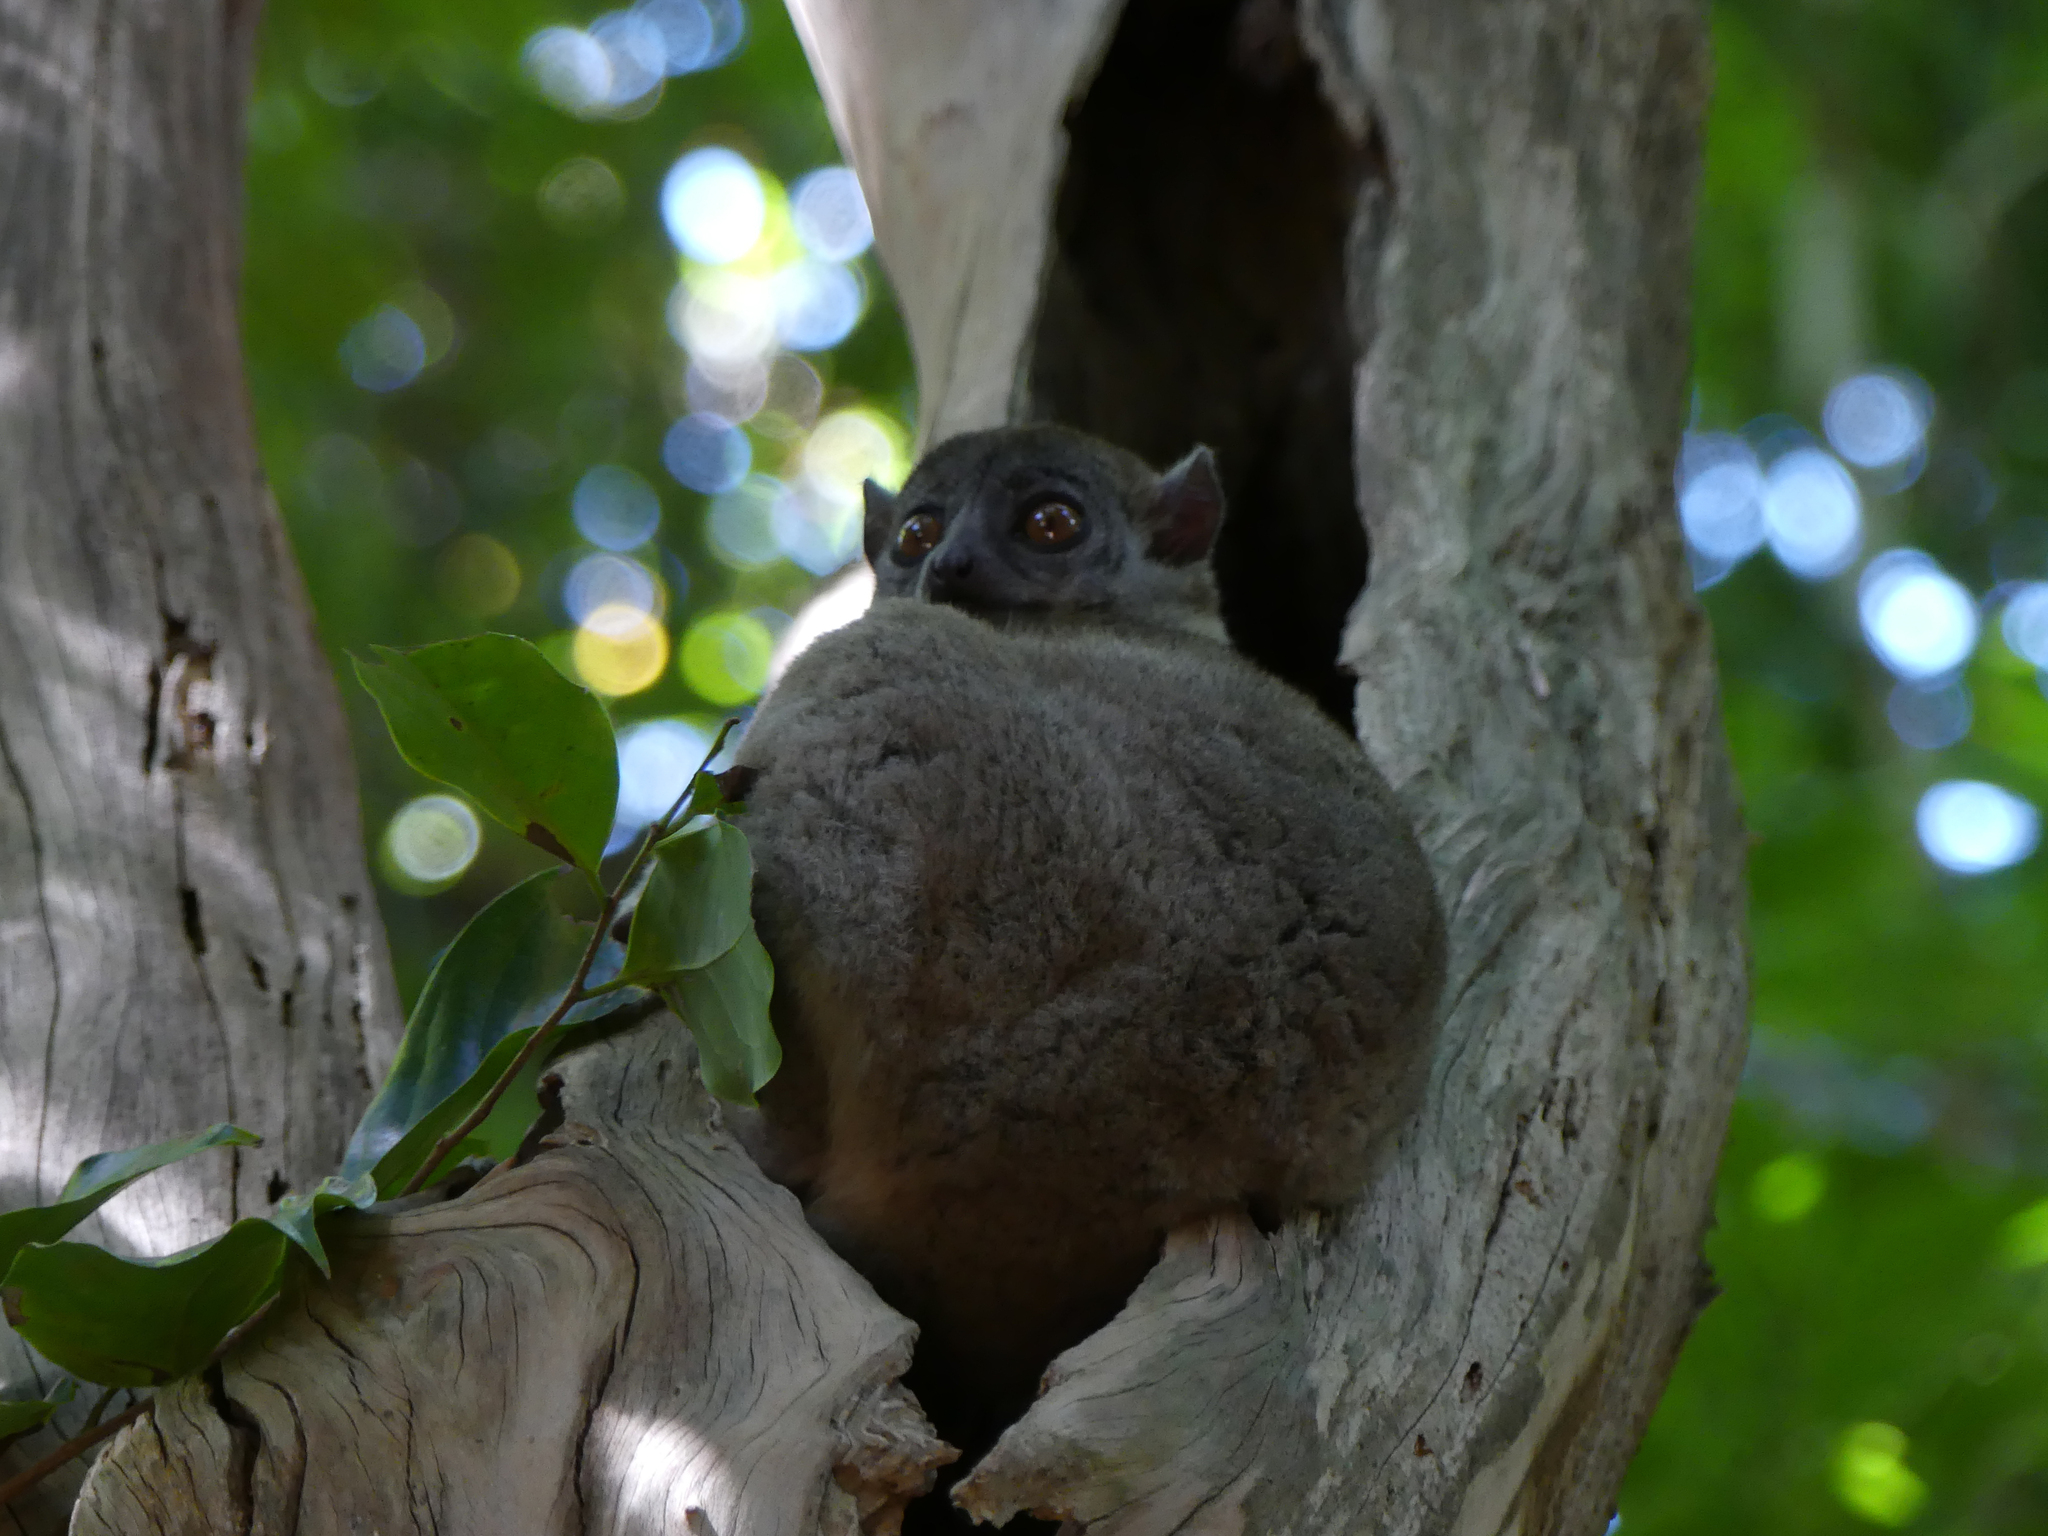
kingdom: Animalia
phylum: Chordata
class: Mammalia
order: Primates
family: Lepilemuridae
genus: Lepilemur
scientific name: Lepilemur ankaranensis
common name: Ankarana sportive lemur
